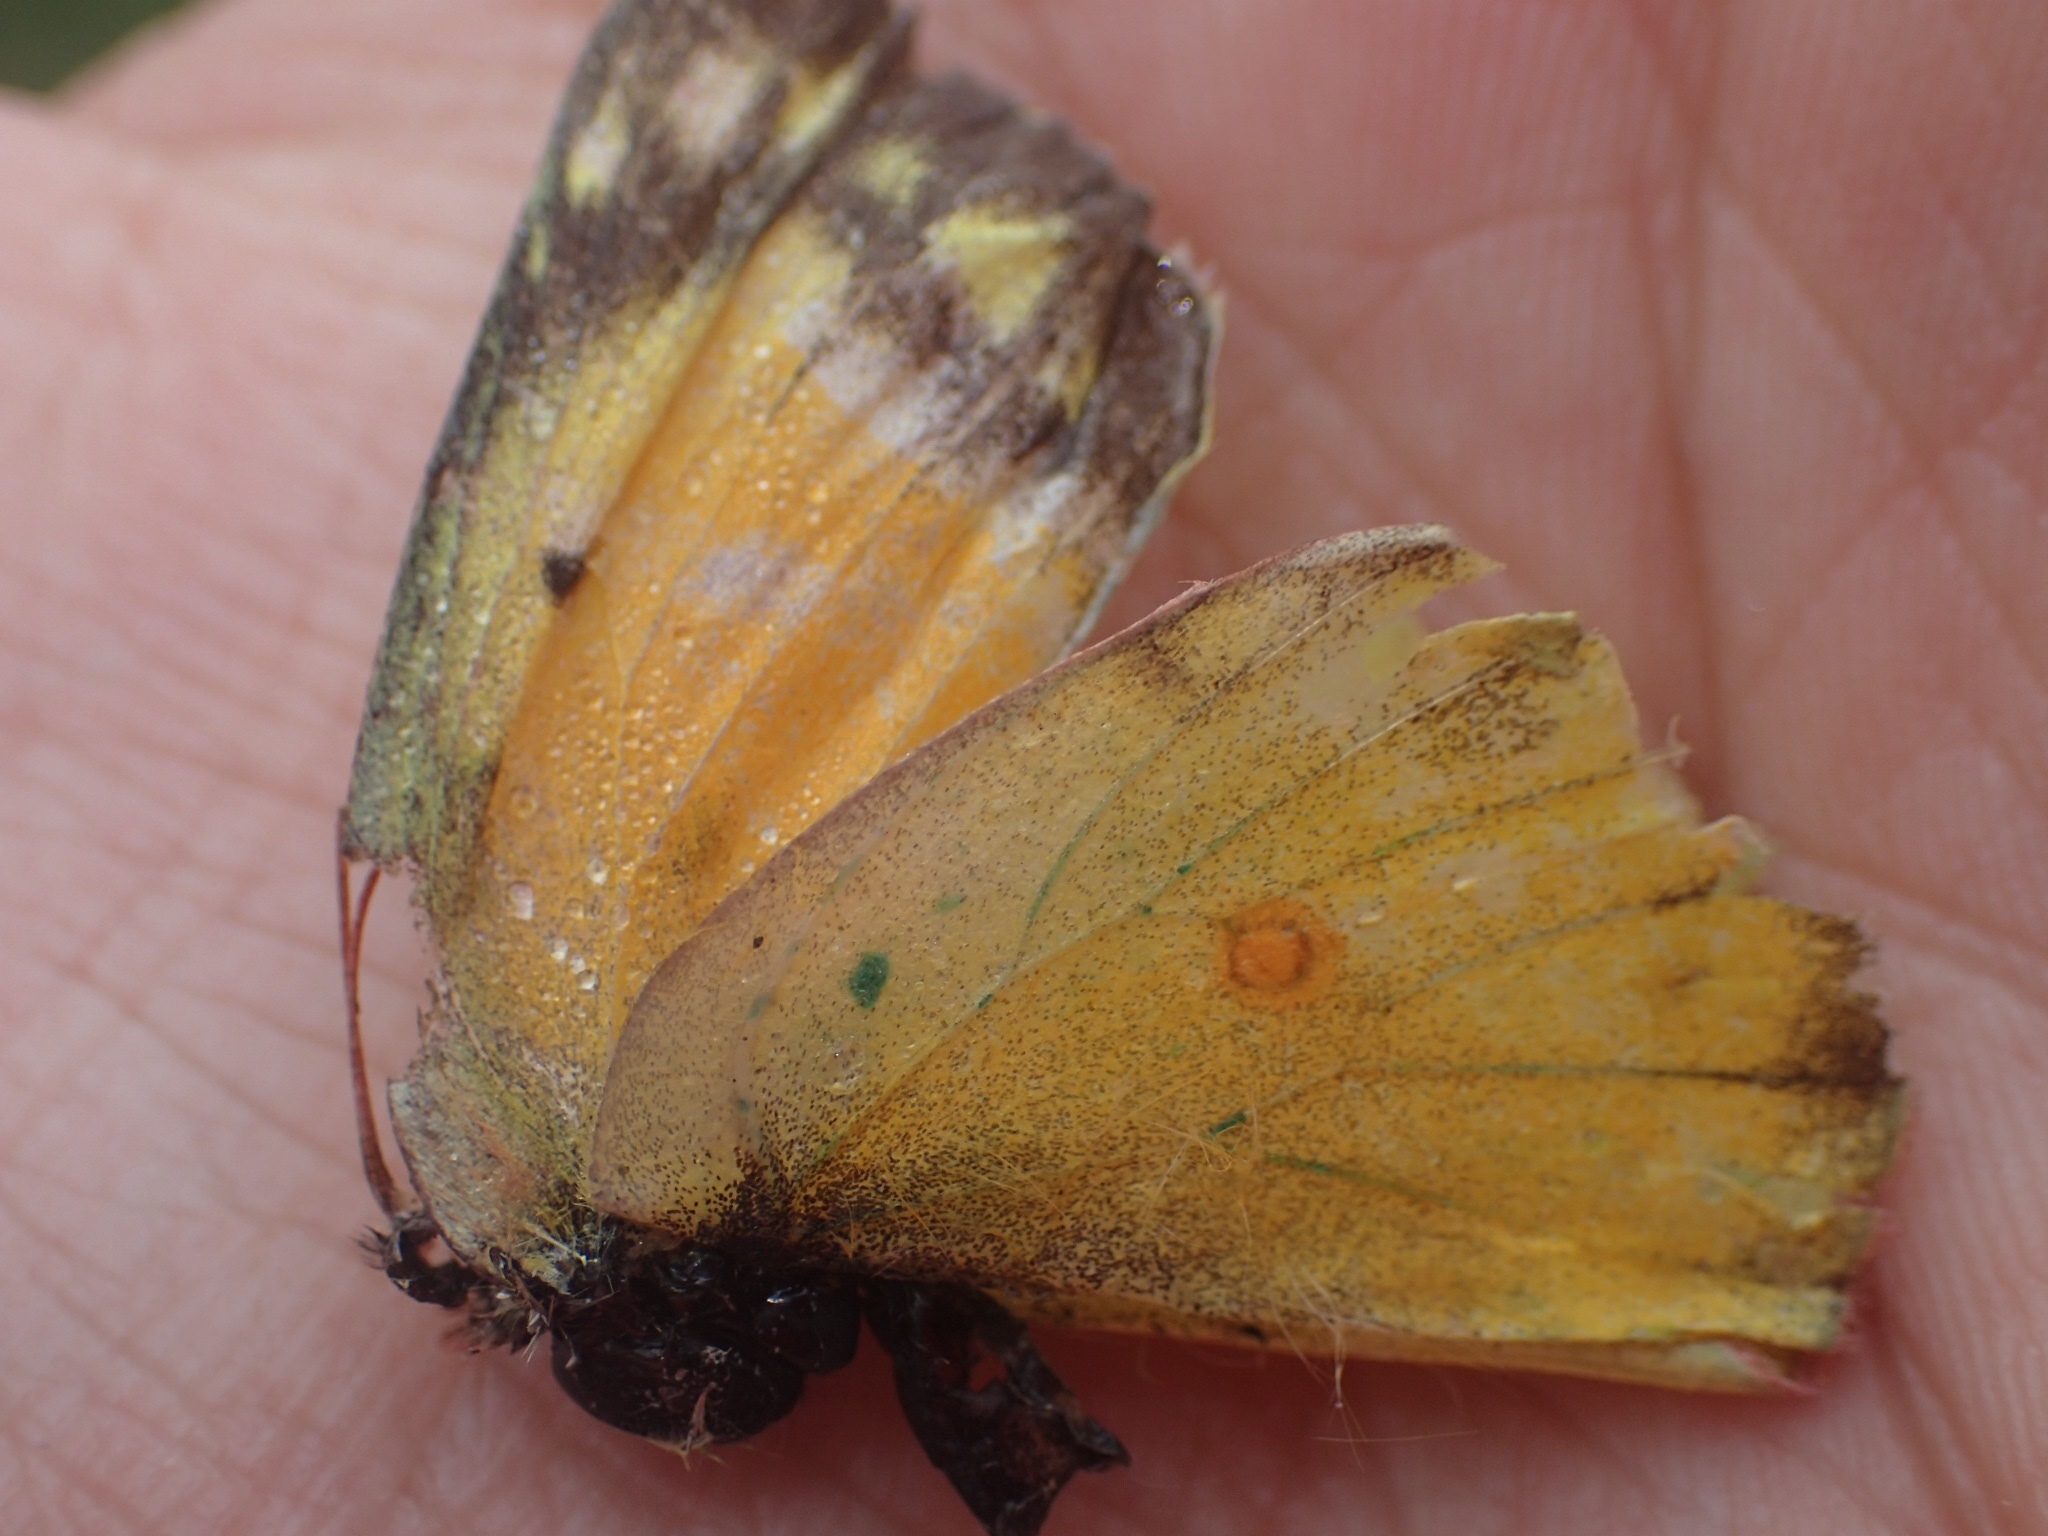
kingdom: Animalia
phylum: Arthropoda
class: Insecta
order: Lepidoptera
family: Pieridae
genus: Colias
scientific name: Colias eurytheme
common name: Alfalfa butterfly
